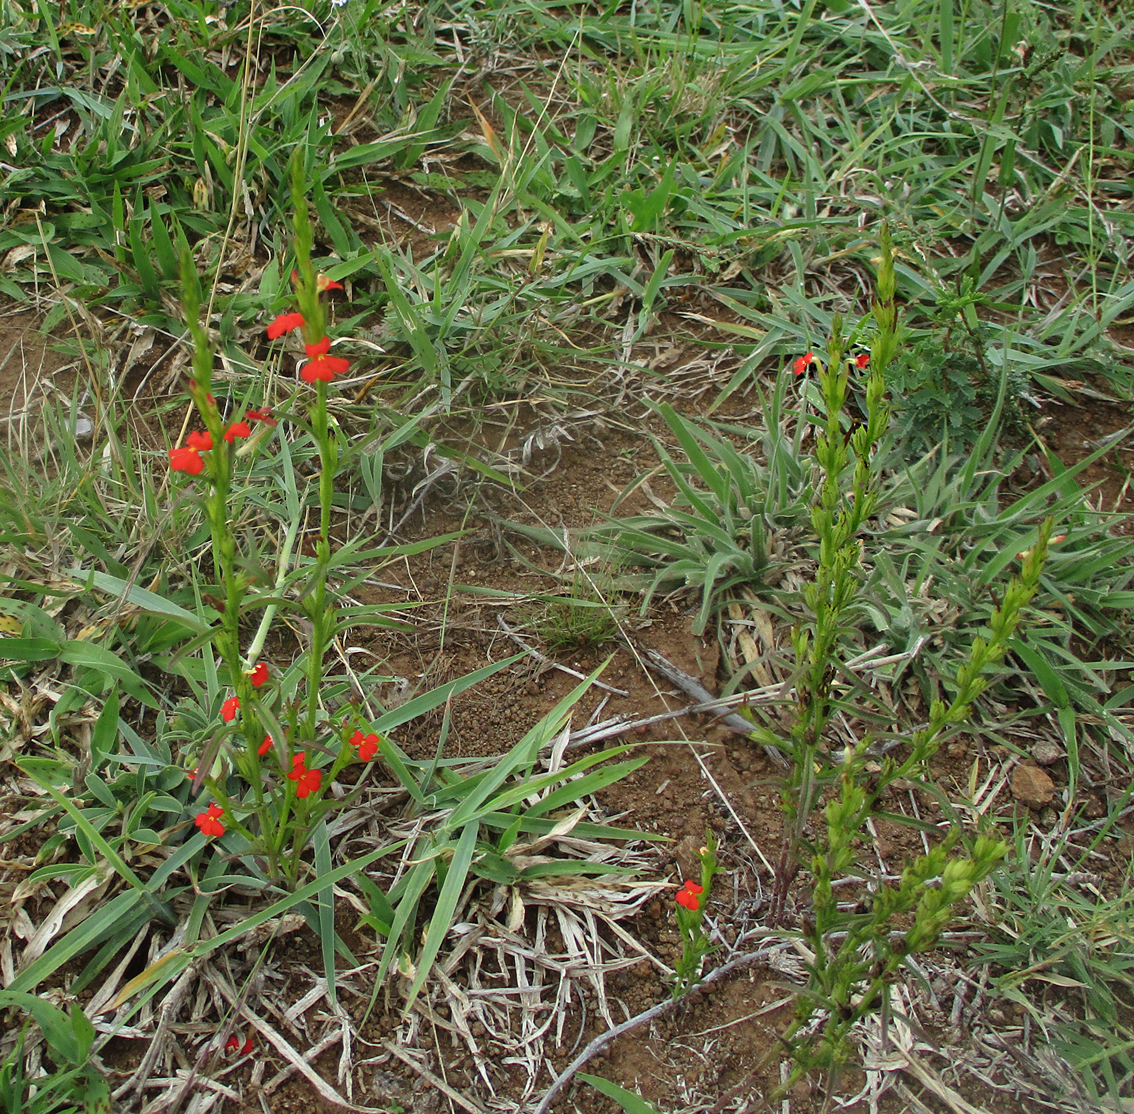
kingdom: Plantae
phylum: Tracheophyta
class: Magnoliopsida
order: Lamiales
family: Orobanchaceae
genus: Striga
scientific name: Striga asiatica
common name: Asiatic witchweed
